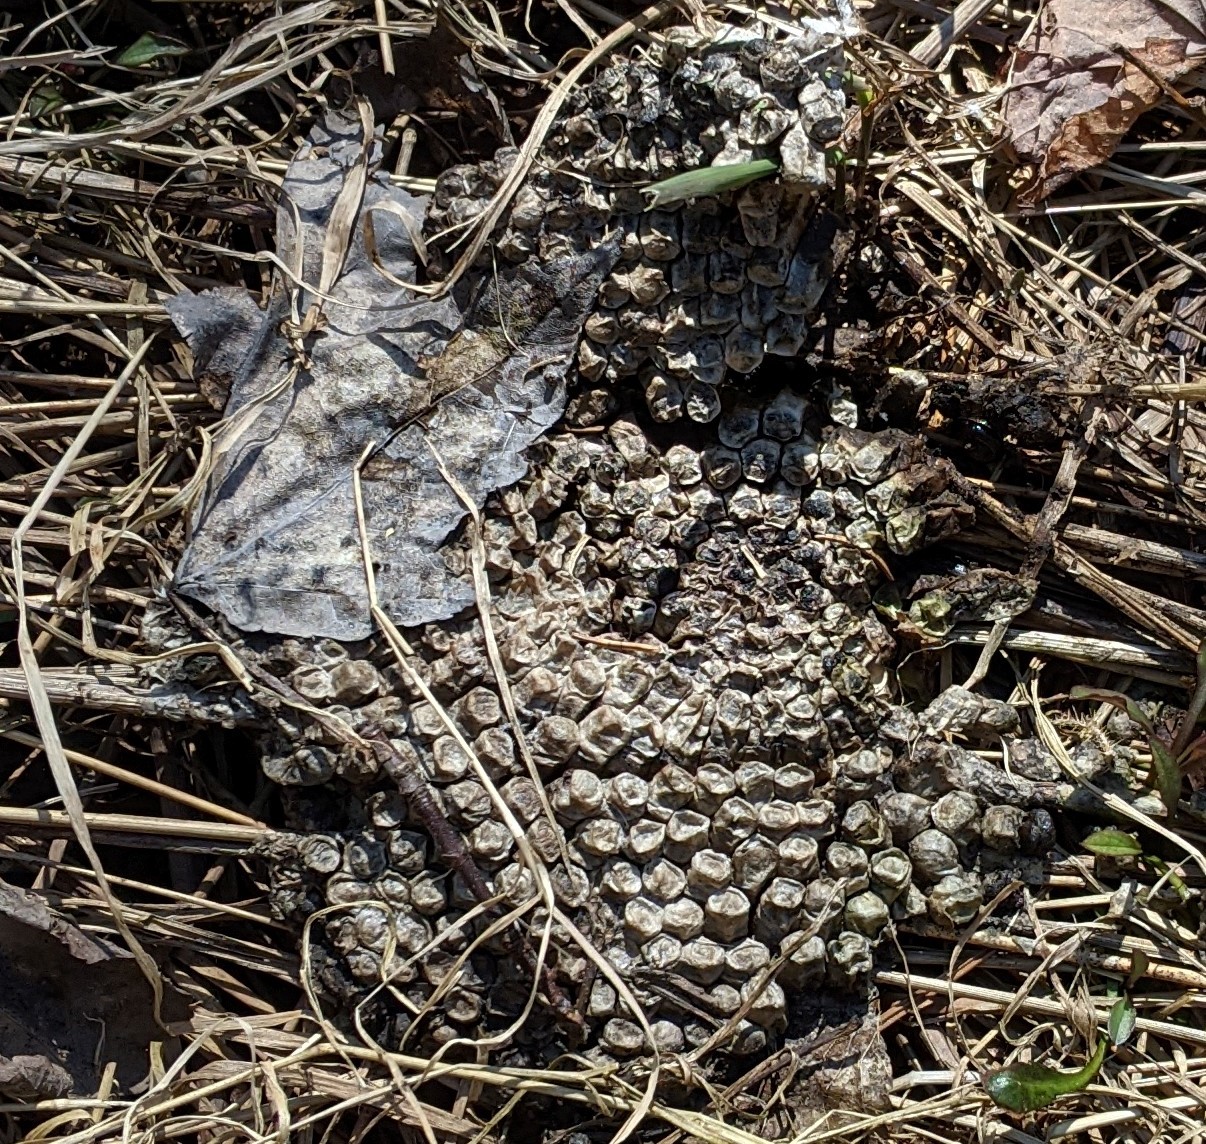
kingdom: Animalia
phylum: Arthropoda
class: Insecta
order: Hymenoptera
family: Vespidae
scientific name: Vespidae
